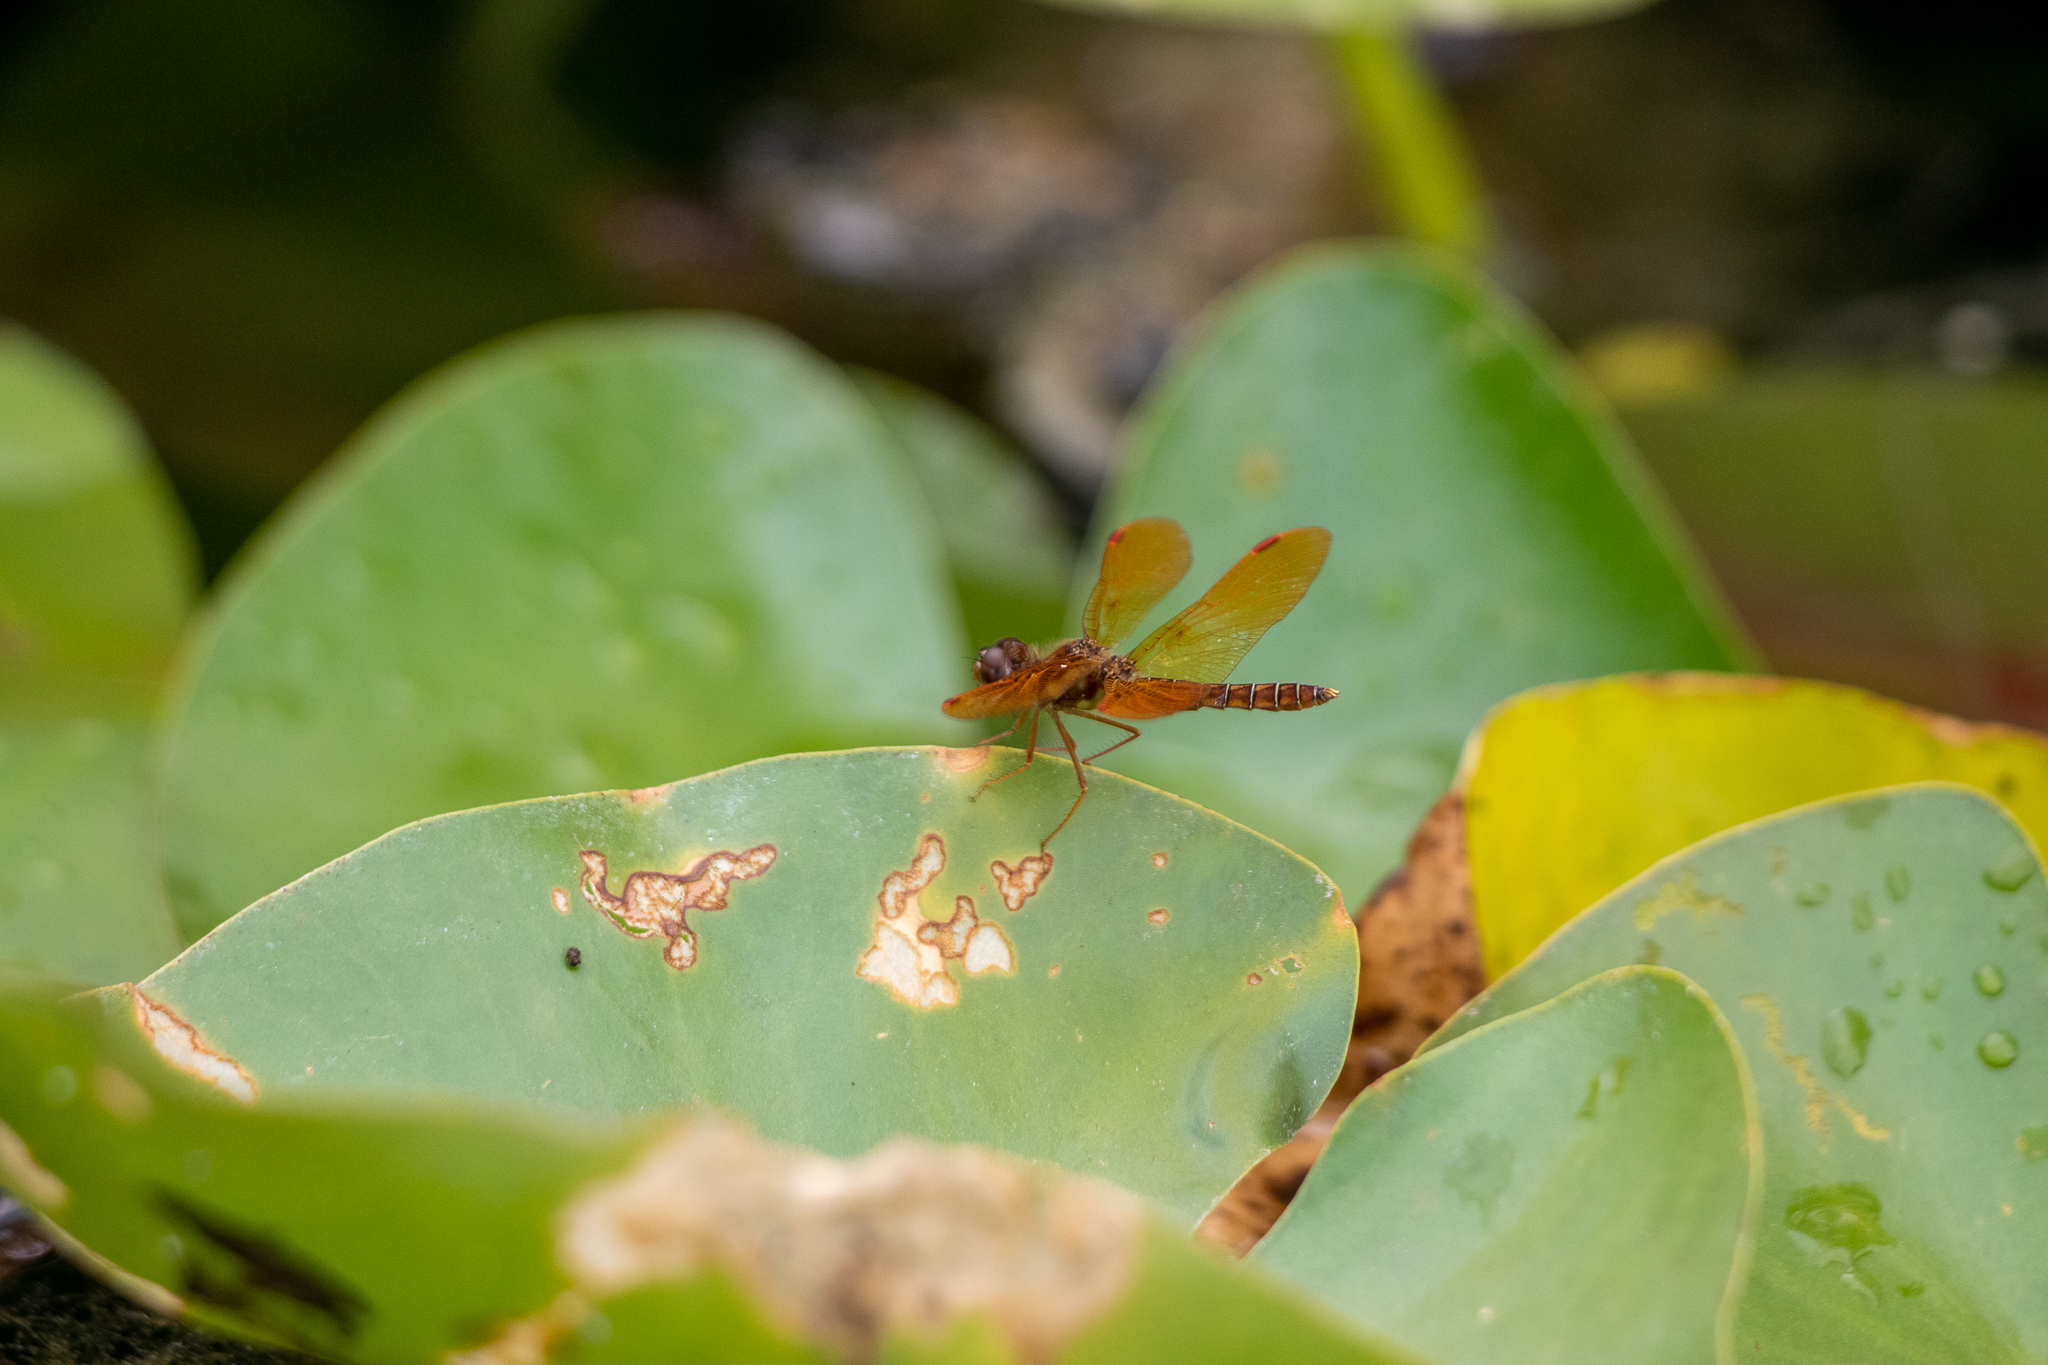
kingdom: Animalia
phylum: Arthropoda
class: Insecta
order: Odonata
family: Libellulidae
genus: Perithemis
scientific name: Perithemis tenera
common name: Eastern amberwing
